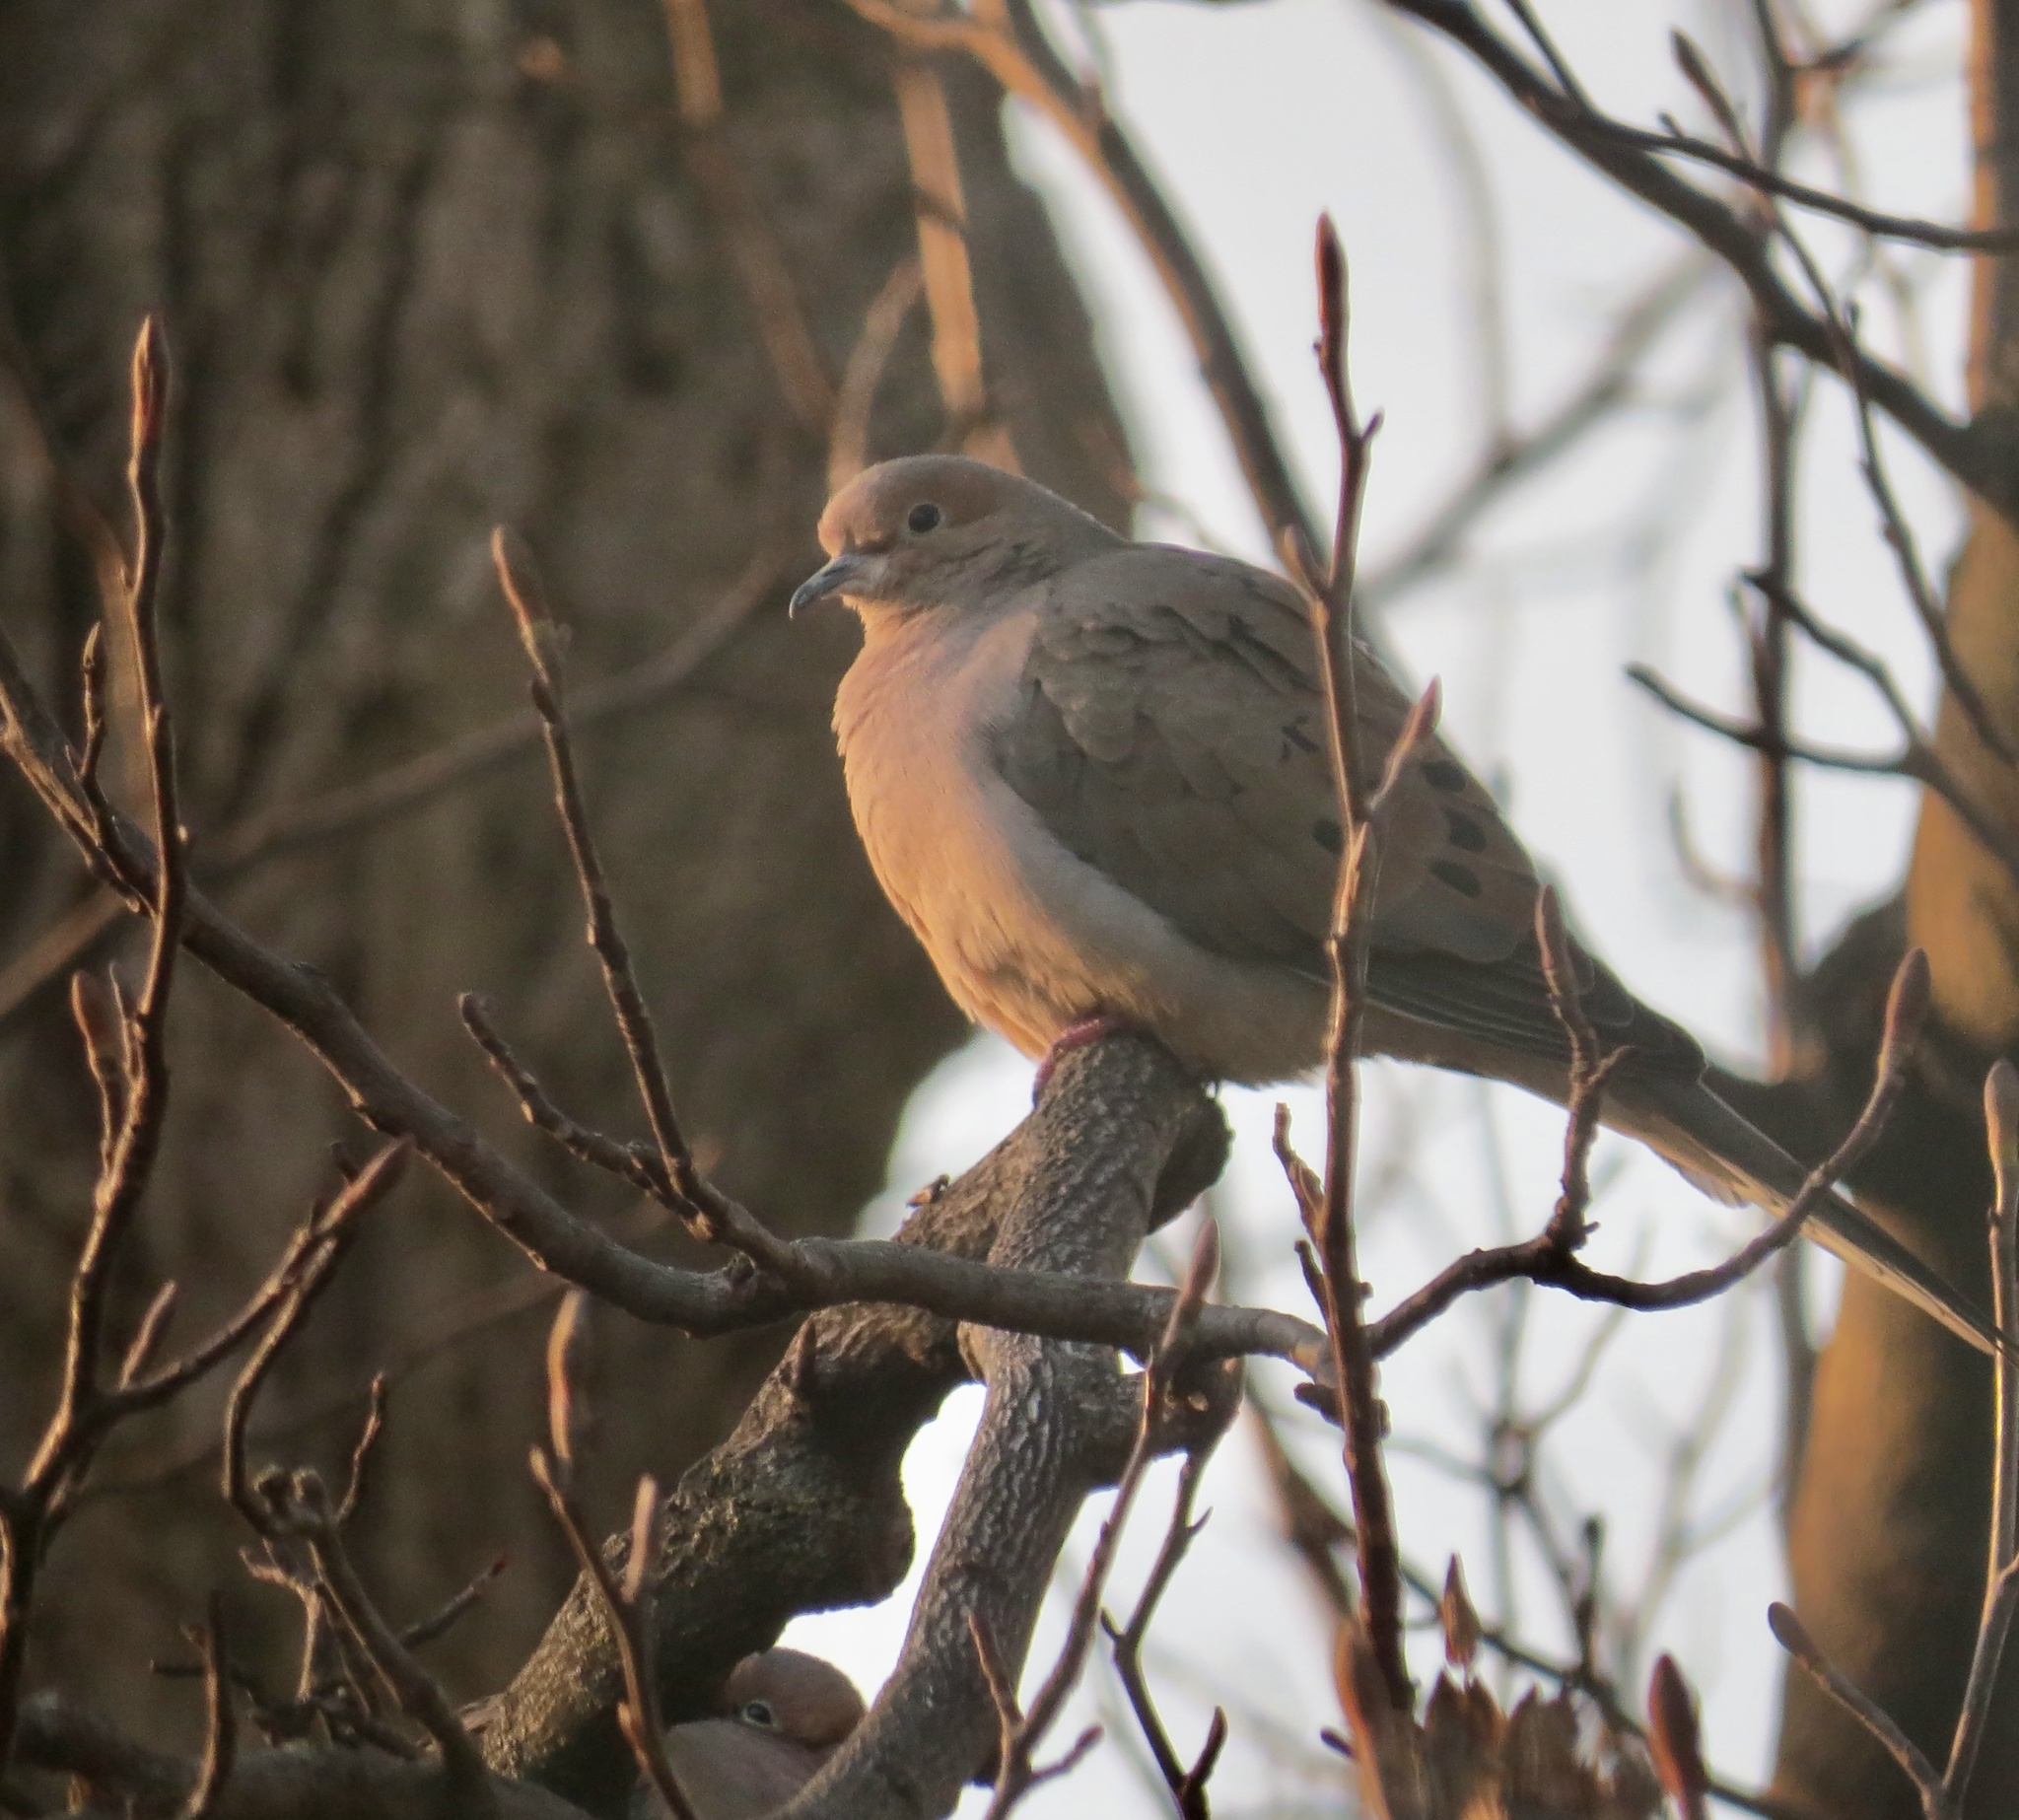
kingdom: Animalia
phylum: Chordata
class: Aves
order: Columbiformes
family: Columbidae
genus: Zenaida
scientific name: Zenaida macroura
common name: Mourning dove
